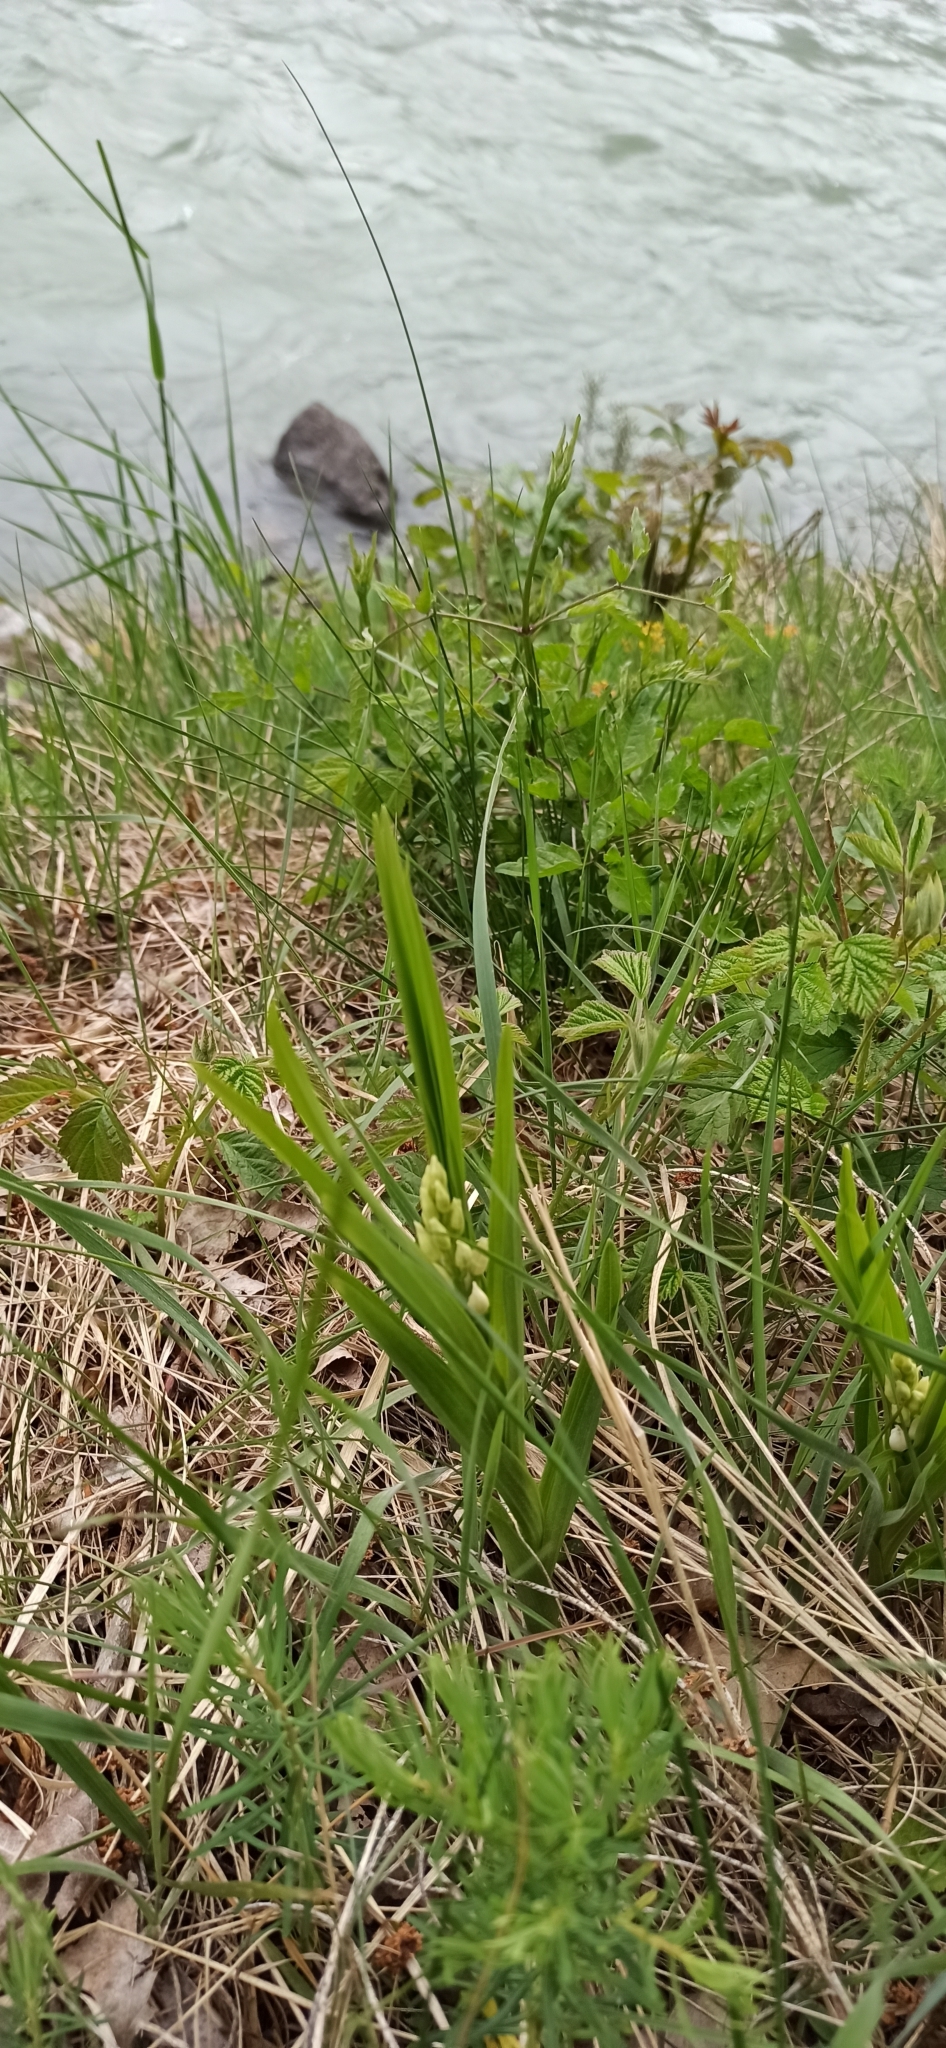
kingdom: Plantae
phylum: Tracheophyta
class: Liliopsida
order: Asparagales
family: Orchidaceae
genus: Cephalanthera
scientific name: Cephalanthera longifolia
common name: Narrow-leaved helleborine
